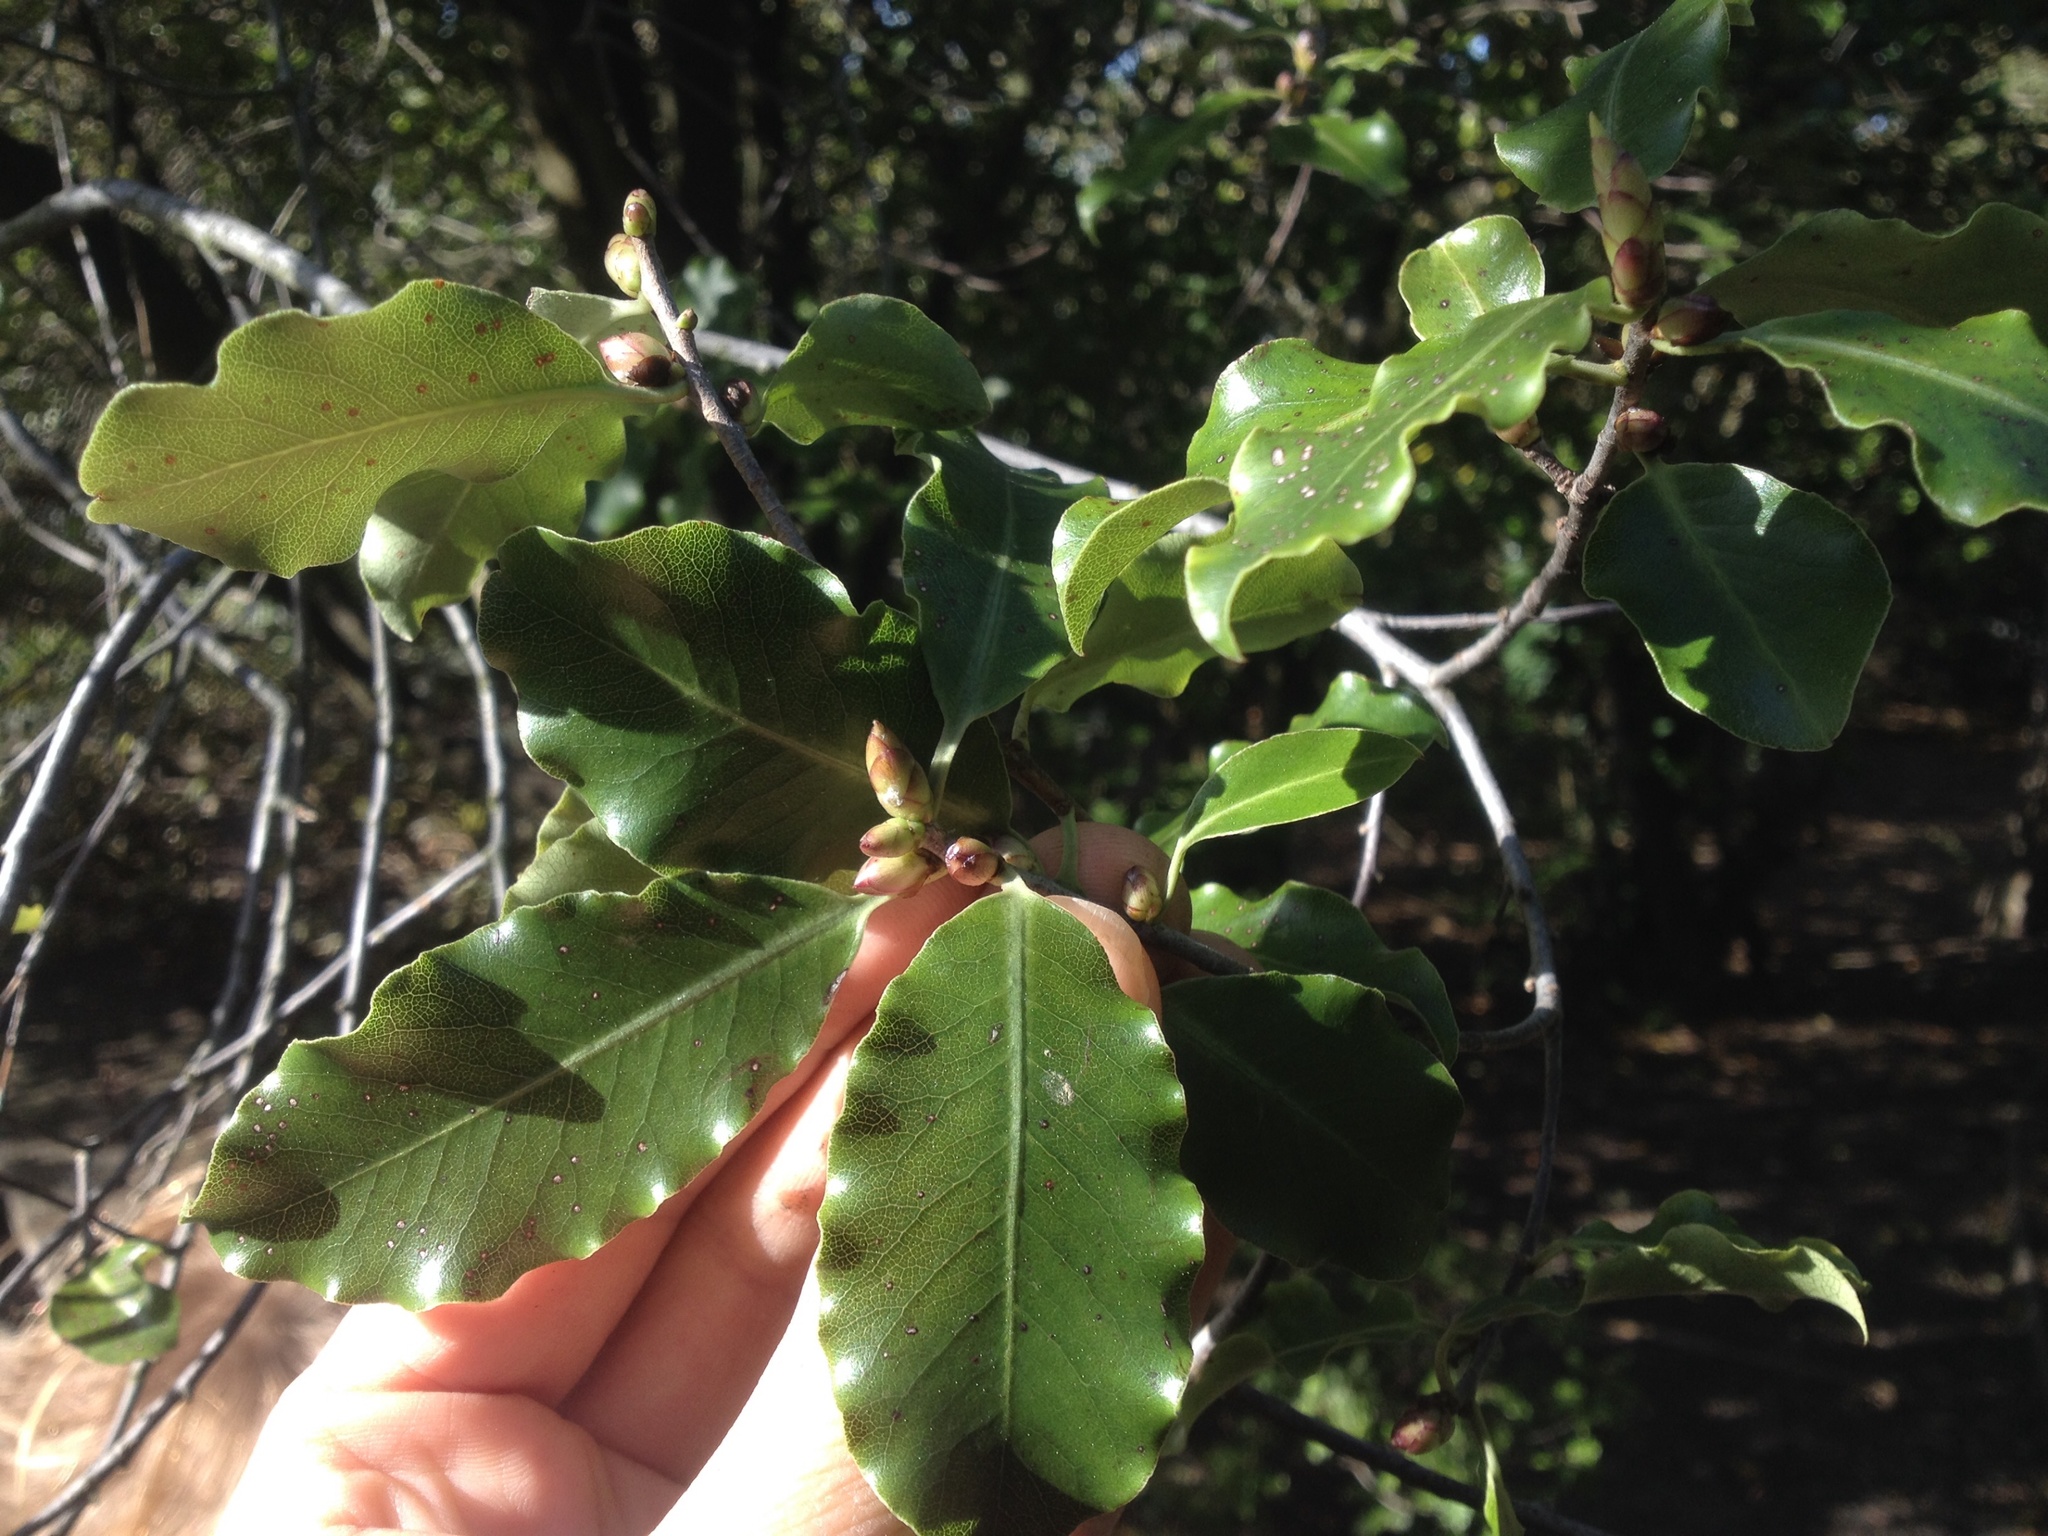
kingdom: Plantae
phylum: Tracheophyta
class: Magnoliopsida
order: Apiales
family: Pittosporaceae
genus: Pittosporum
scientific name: Pittosporum tenuifolium
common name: Kohuhu
